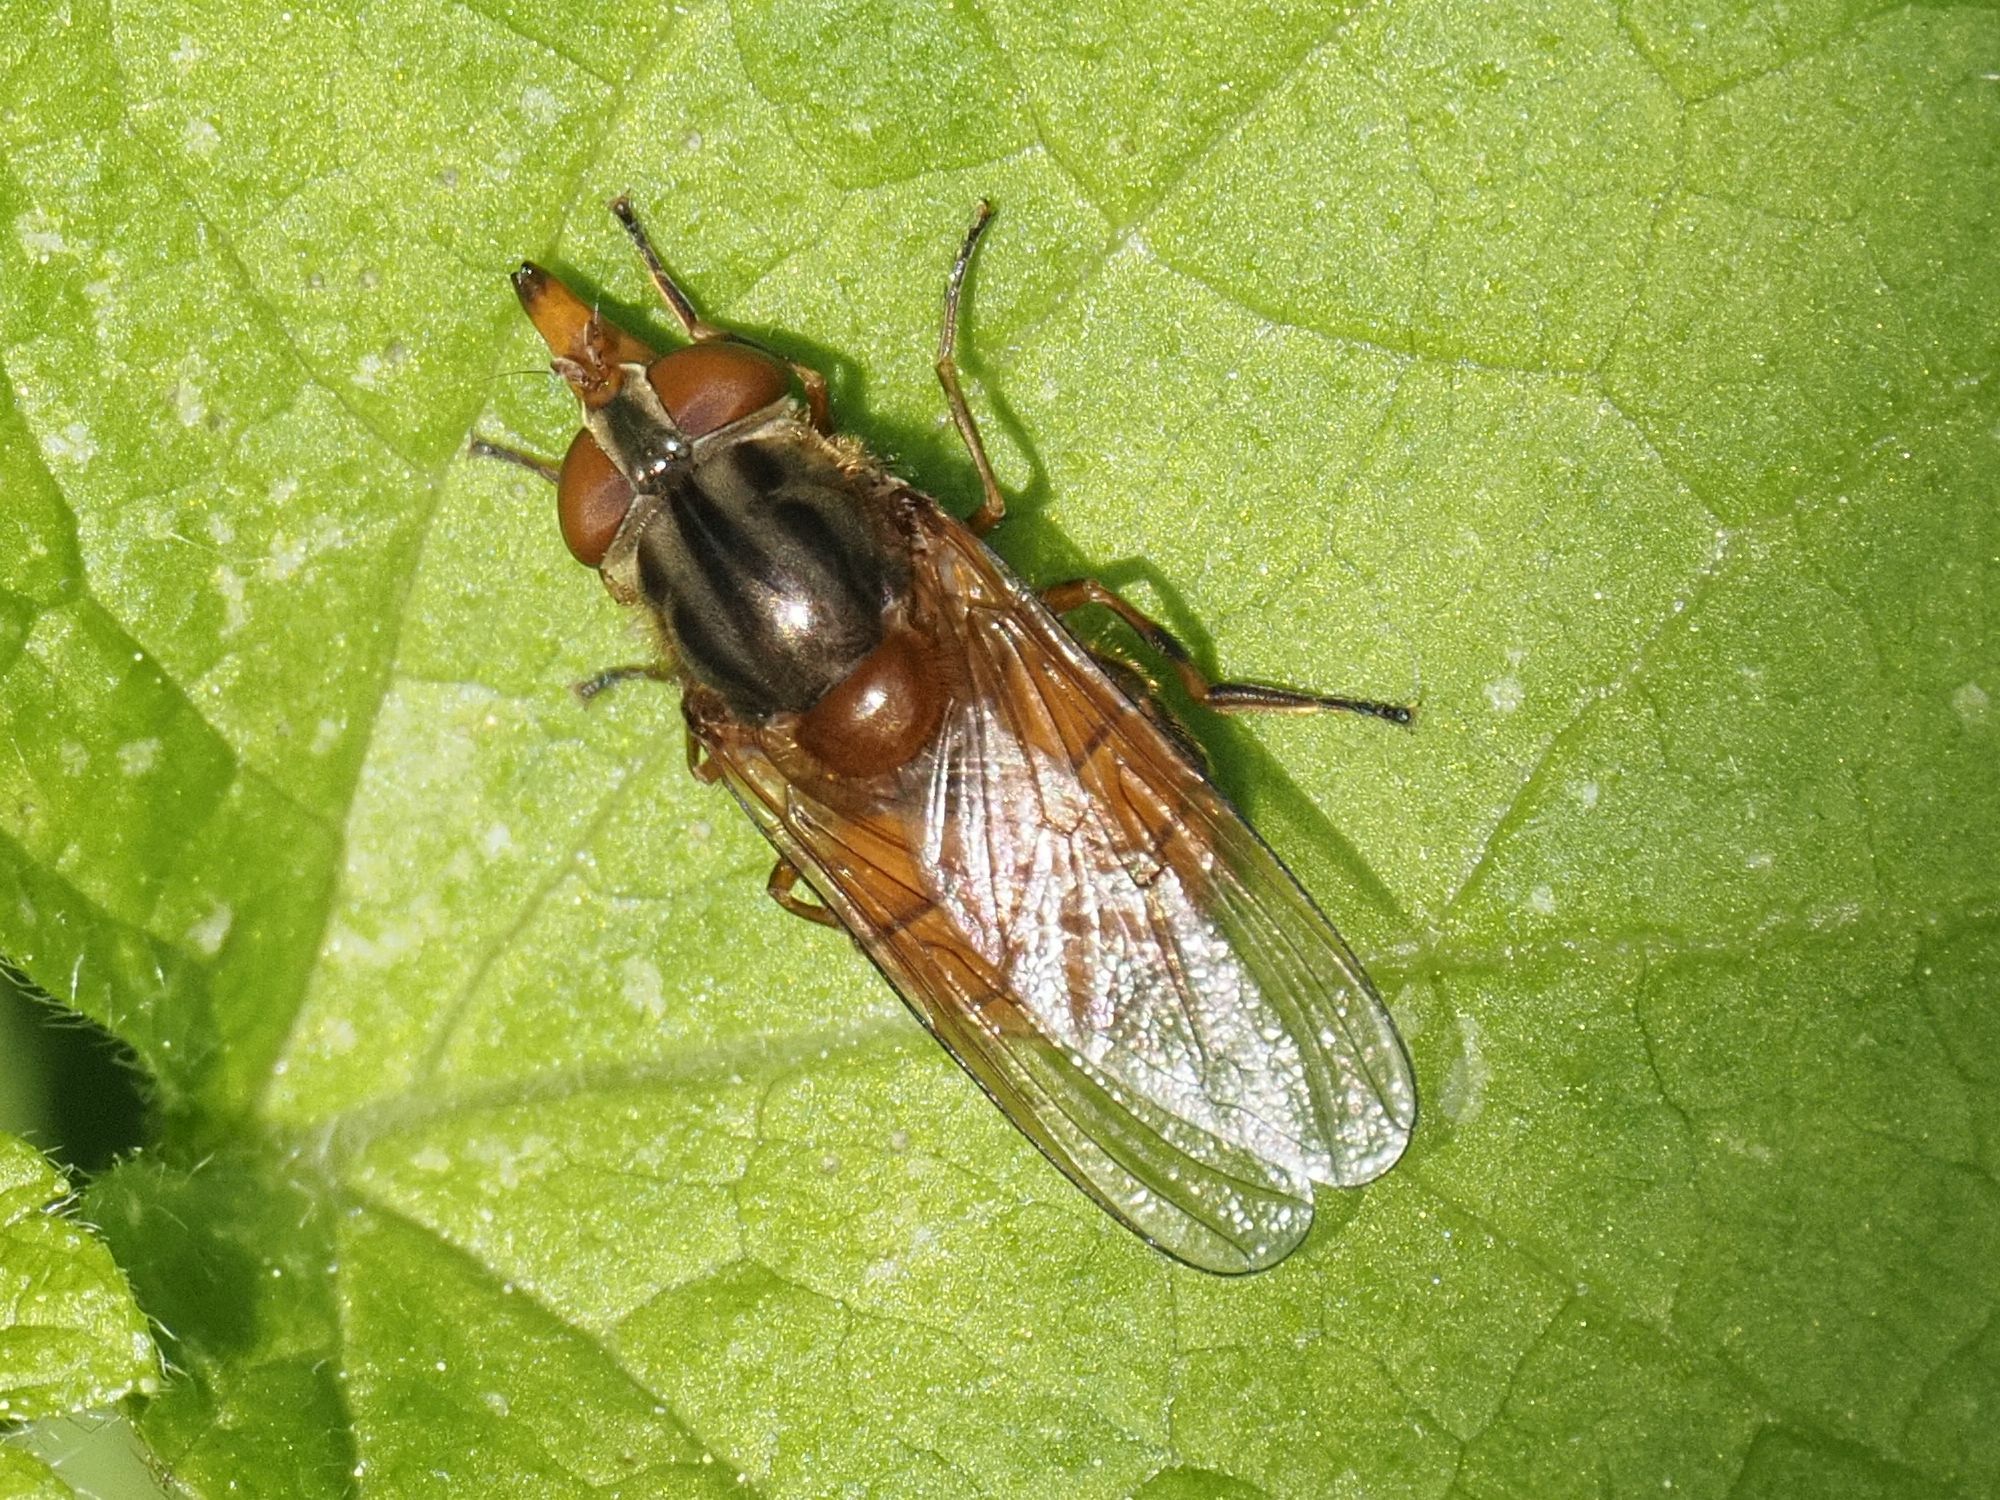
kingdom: Animalia
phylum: Arthropoda
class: Insecta
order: Diptera
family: Syrphidae
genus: Rhingia
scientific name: Rhingia campestris
